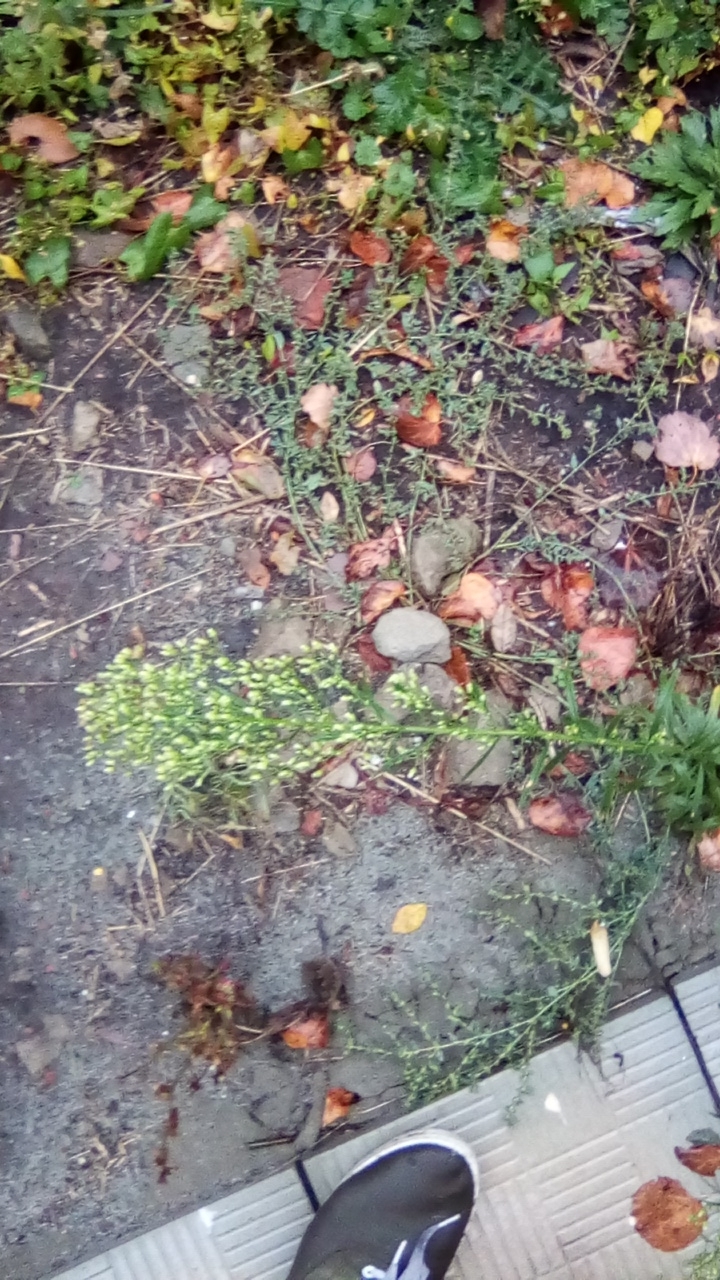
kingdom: Plantae
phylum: Tracheophyta
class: Magnoliopsida
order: Asterales
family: Asteraceae
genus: Erigeron
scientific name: Erigeron canadensis
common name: Canadian fleabane
